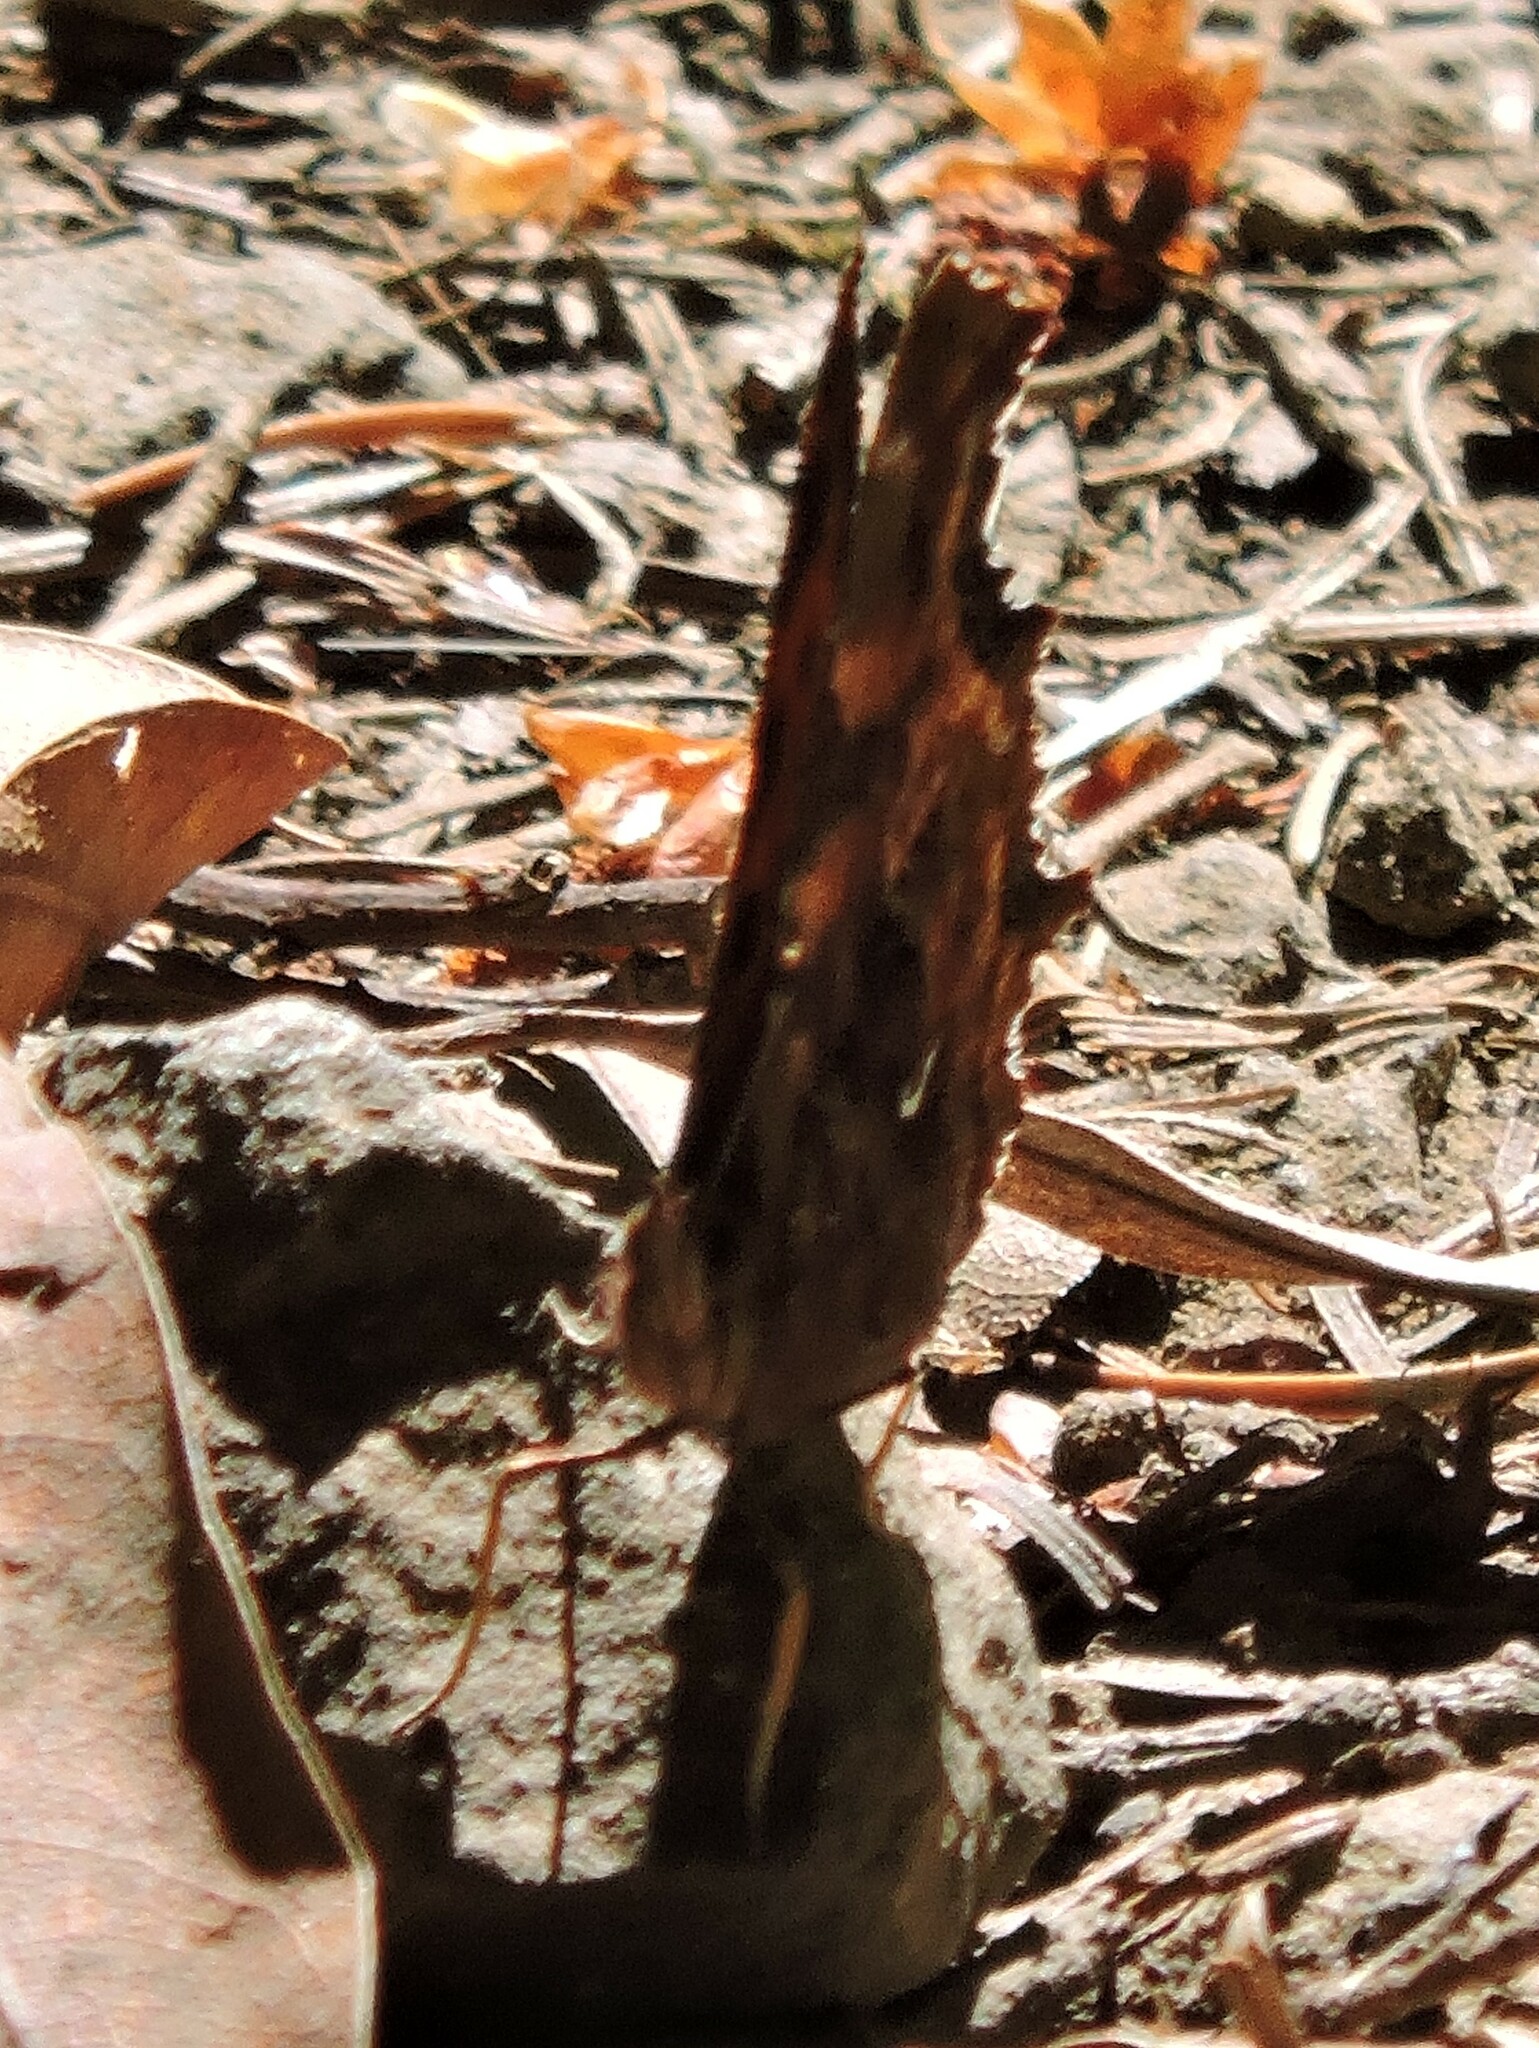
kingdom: Animalia
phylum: Arthropoda
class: Insecta
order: Lepidoptera
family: Nymphalidae
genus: Polygonia
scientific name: Polygonia satyrus
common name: Satyr angle wing
